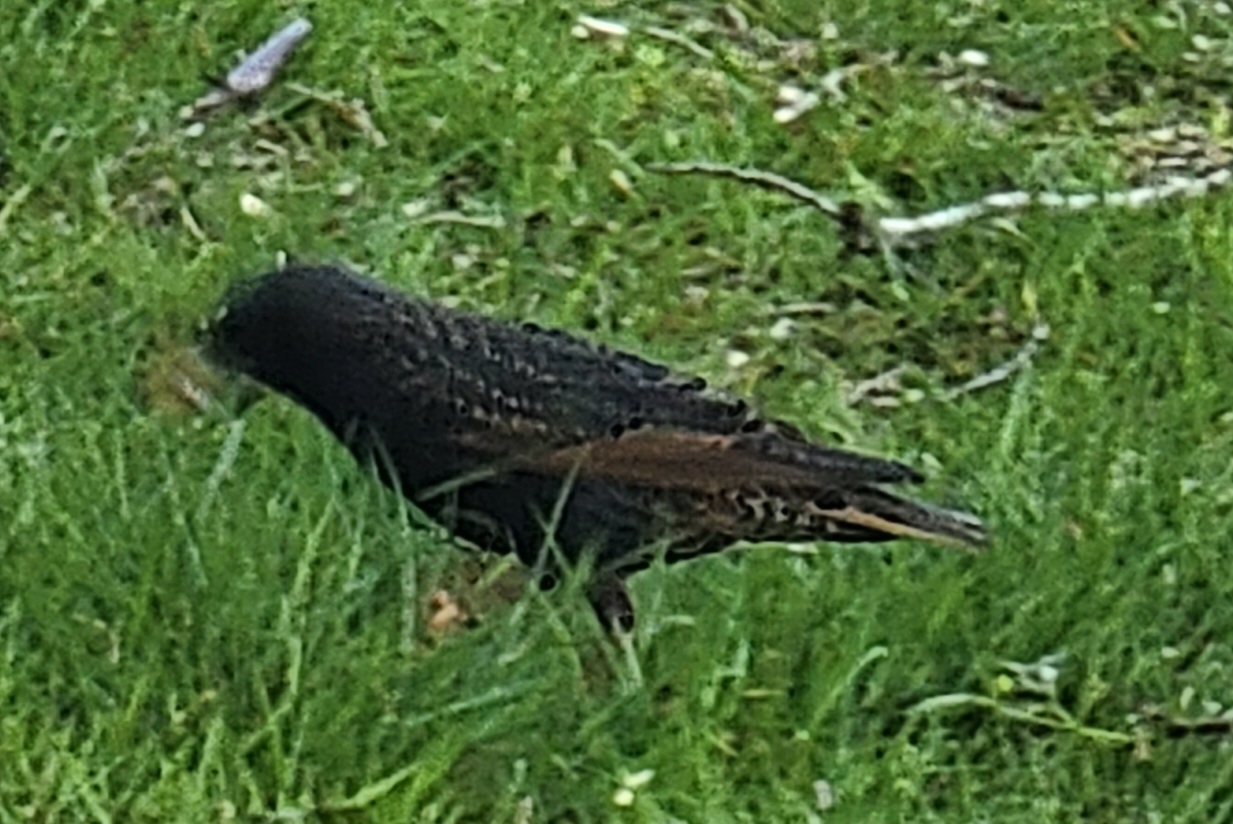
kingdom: Animalia
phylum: Chordata
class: Aves
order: Passeriformes
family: Sturnidae
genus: Sturnus
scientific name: Sturnus vulgaris
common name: Common starling
